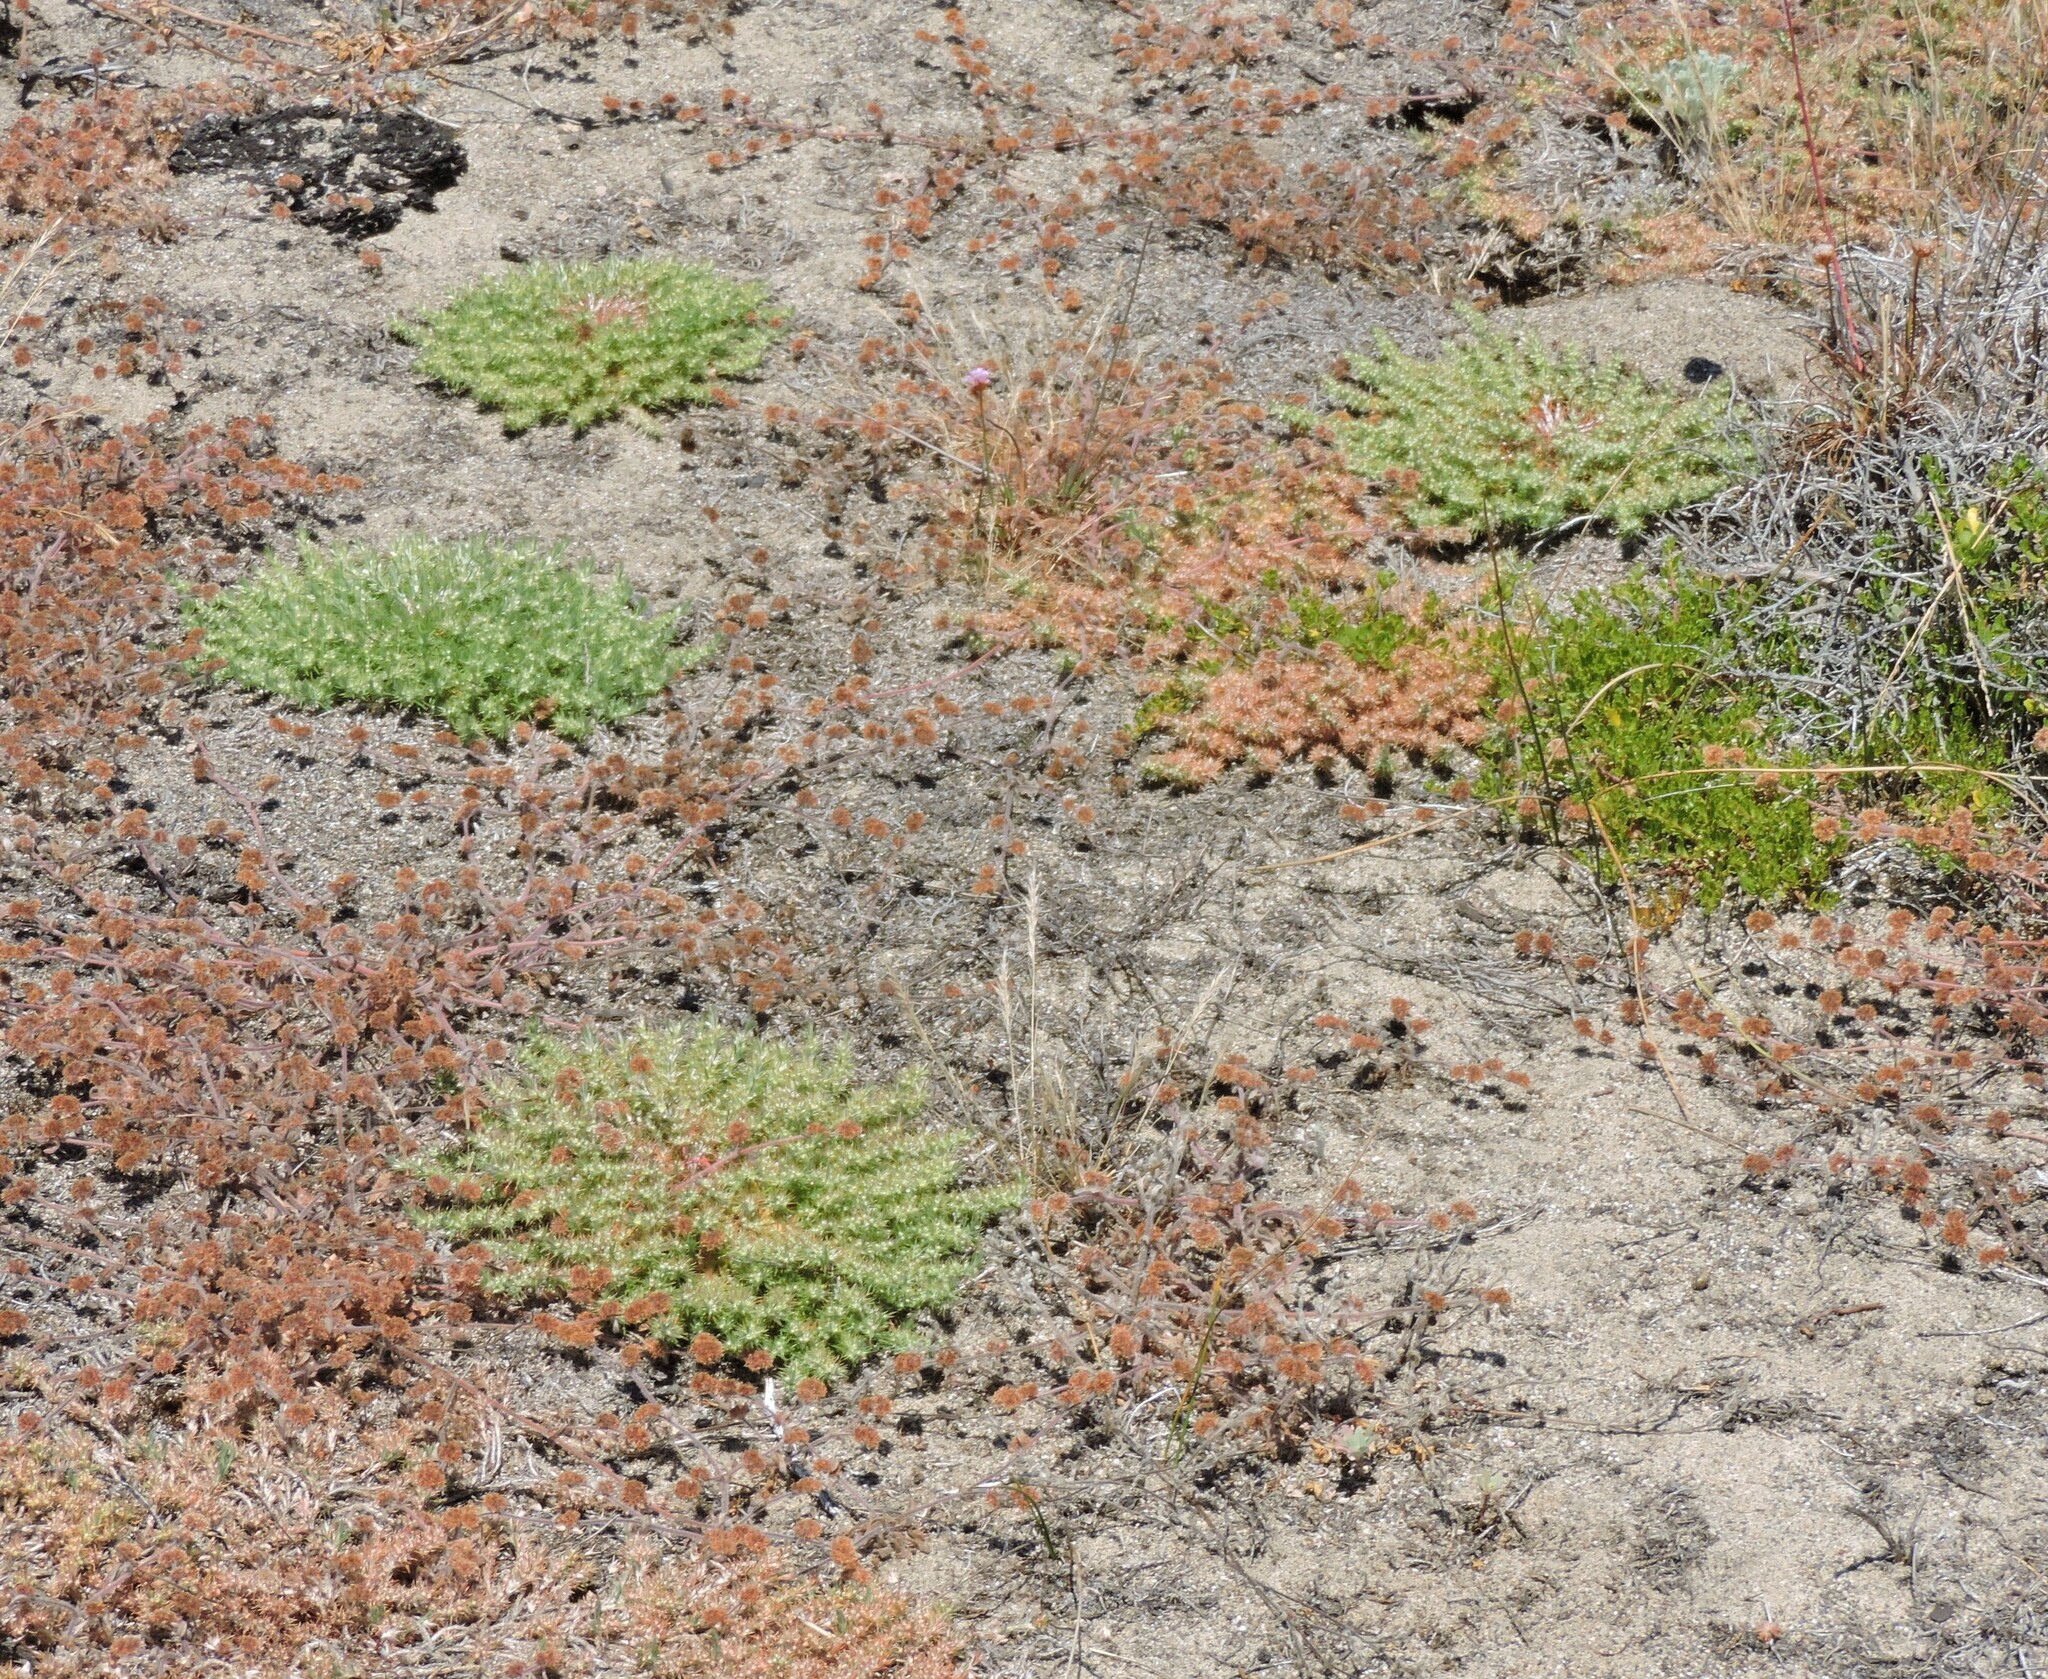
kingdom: Plantae
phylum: Tracheophyta
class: Magnoliopsida
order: Caryophyllales
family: Caryophyllaceae
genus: Cardionema
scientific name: Cardionema ramosissima
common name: Sandcarpet
